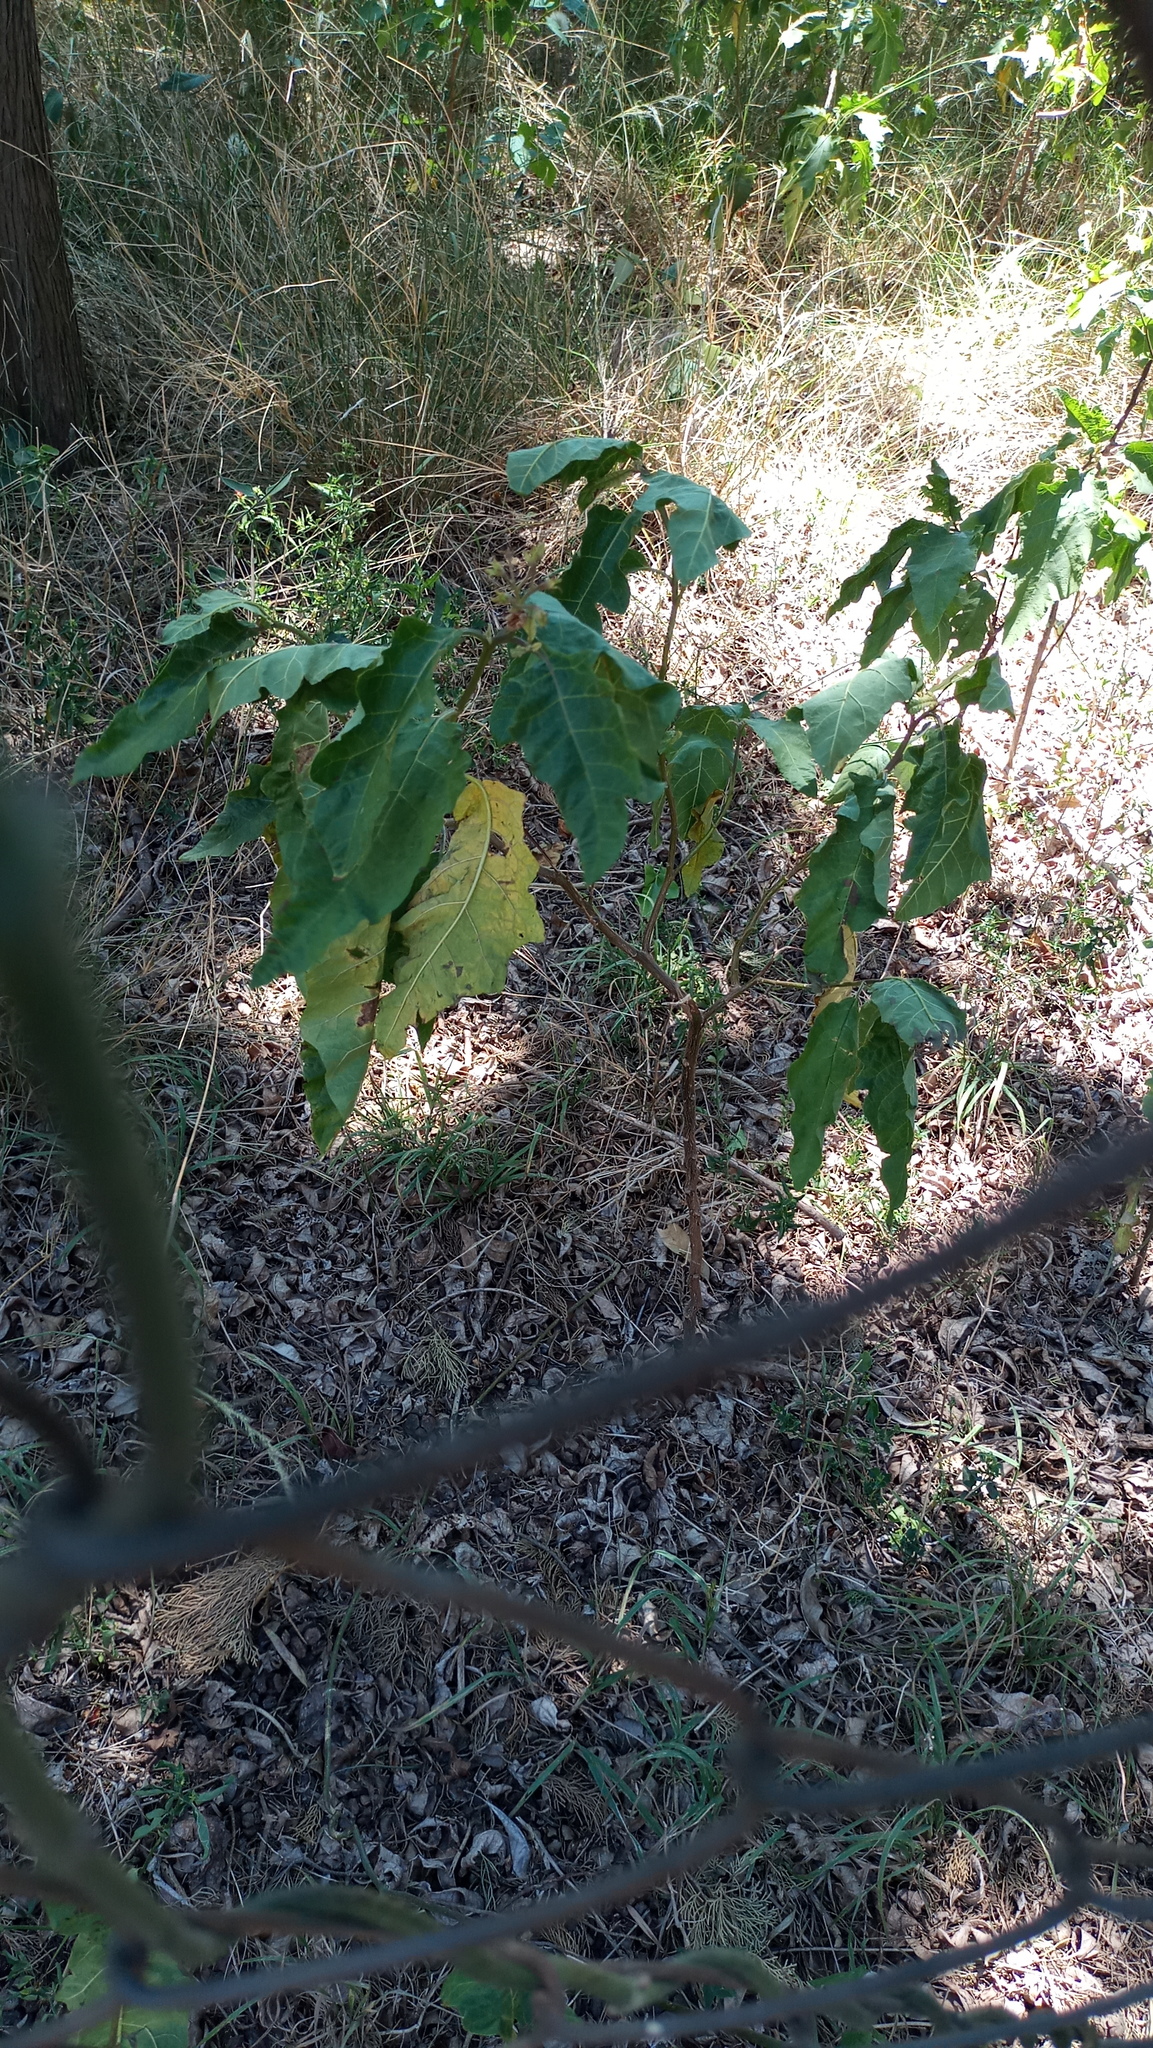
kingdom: Plantae
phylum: Tracheophyta
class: Magnoliopsida
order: Solanales
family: Solanaceae
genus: Solanum
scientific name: Solanum bonariense
